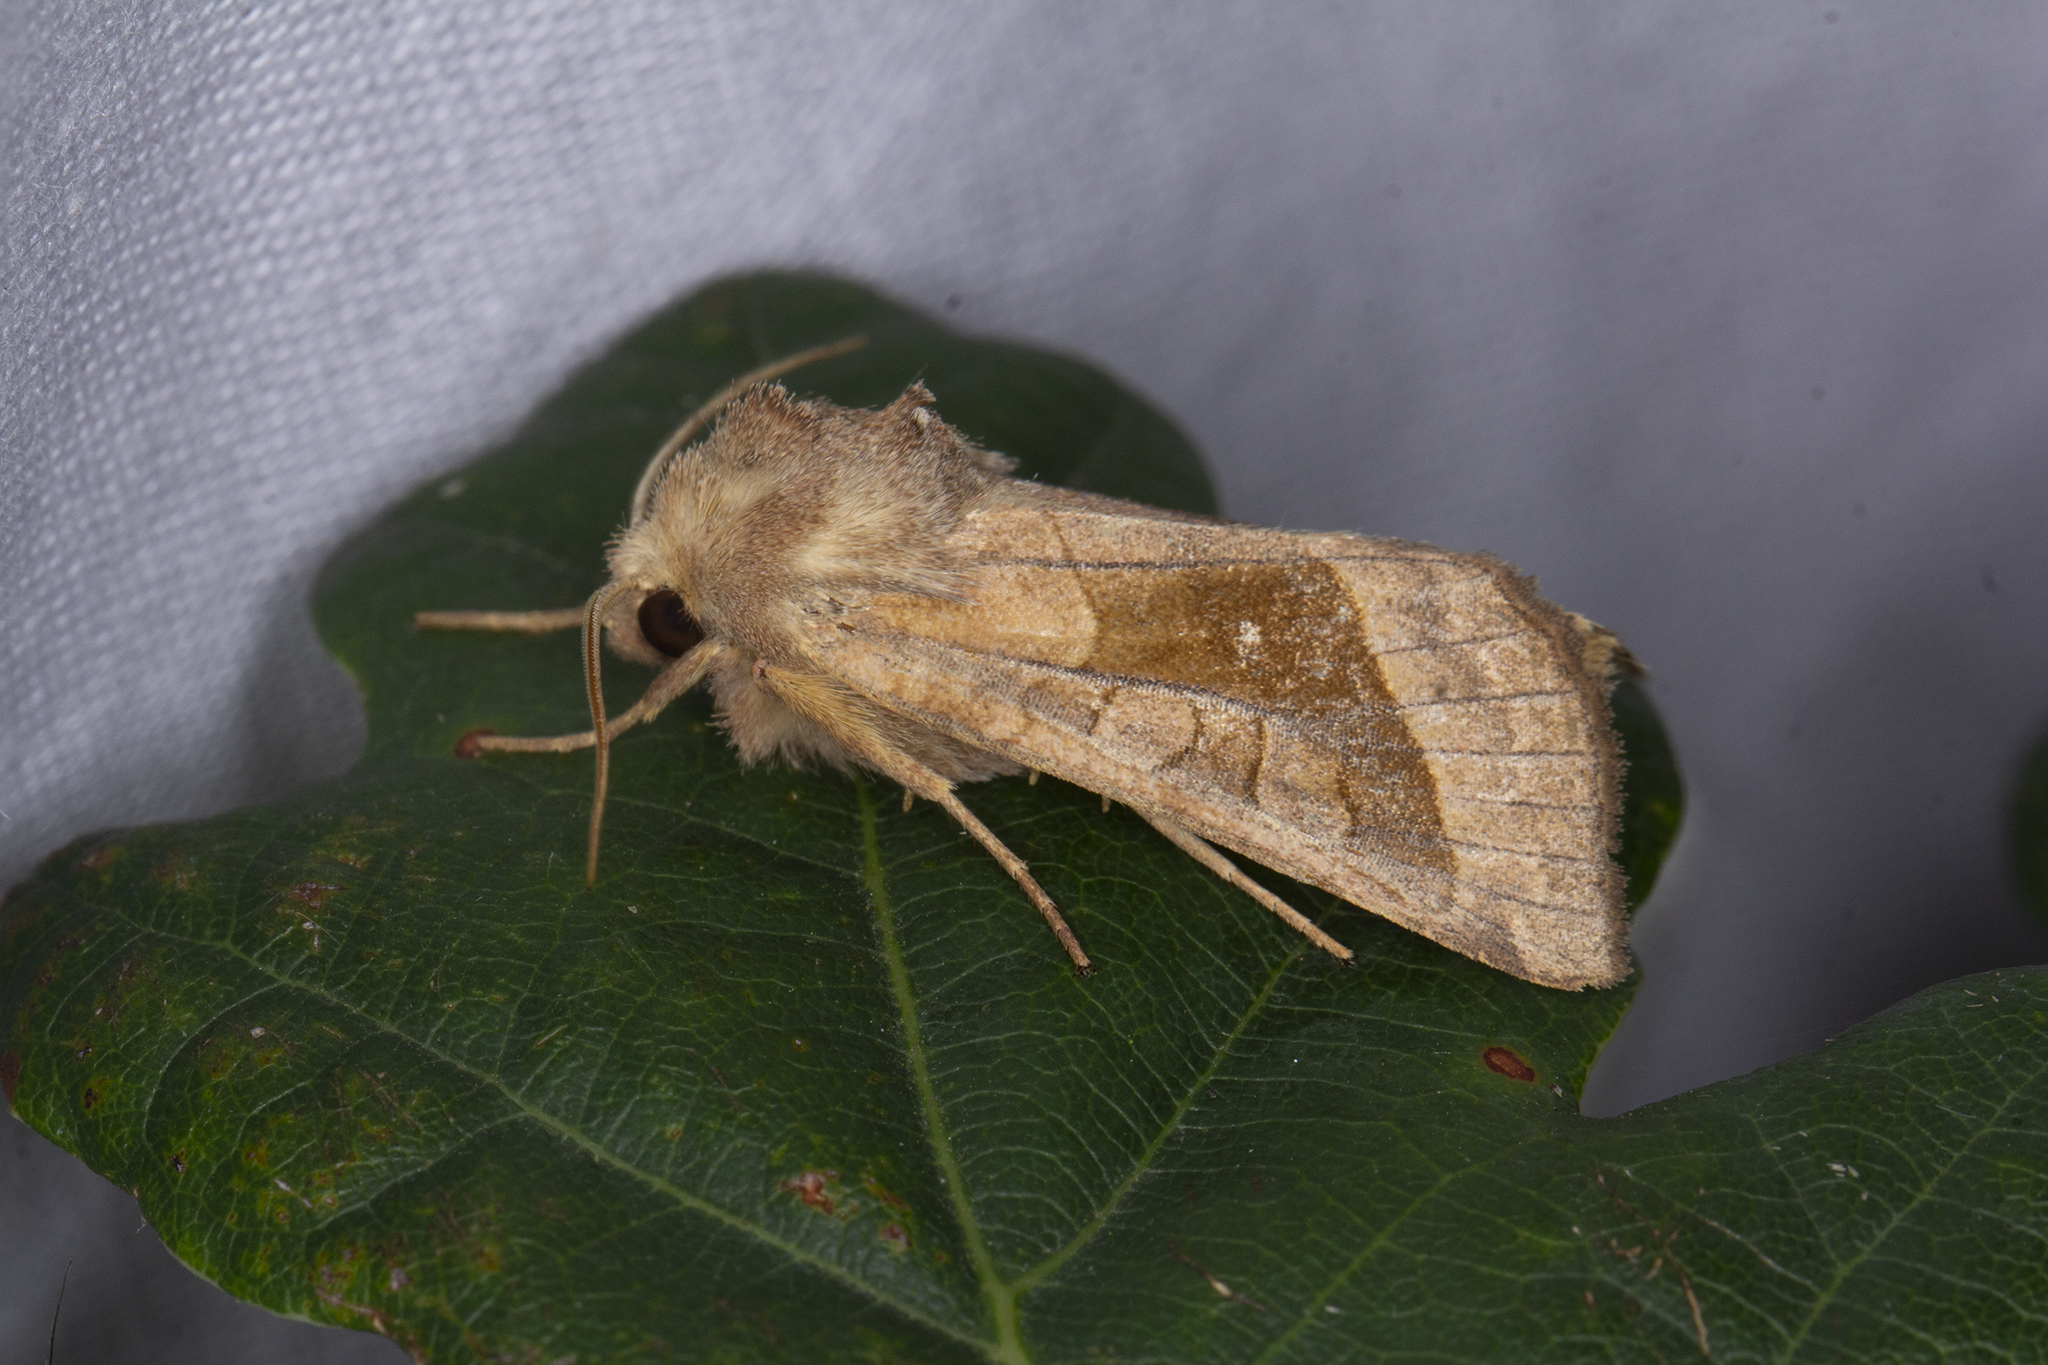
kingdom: Animalia
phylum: Arthropoda
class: Insecta
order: Lepidoptera
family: Noctuidae
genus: Hydraecia
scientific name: Hydraecia micacea
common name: Rosy rustic
